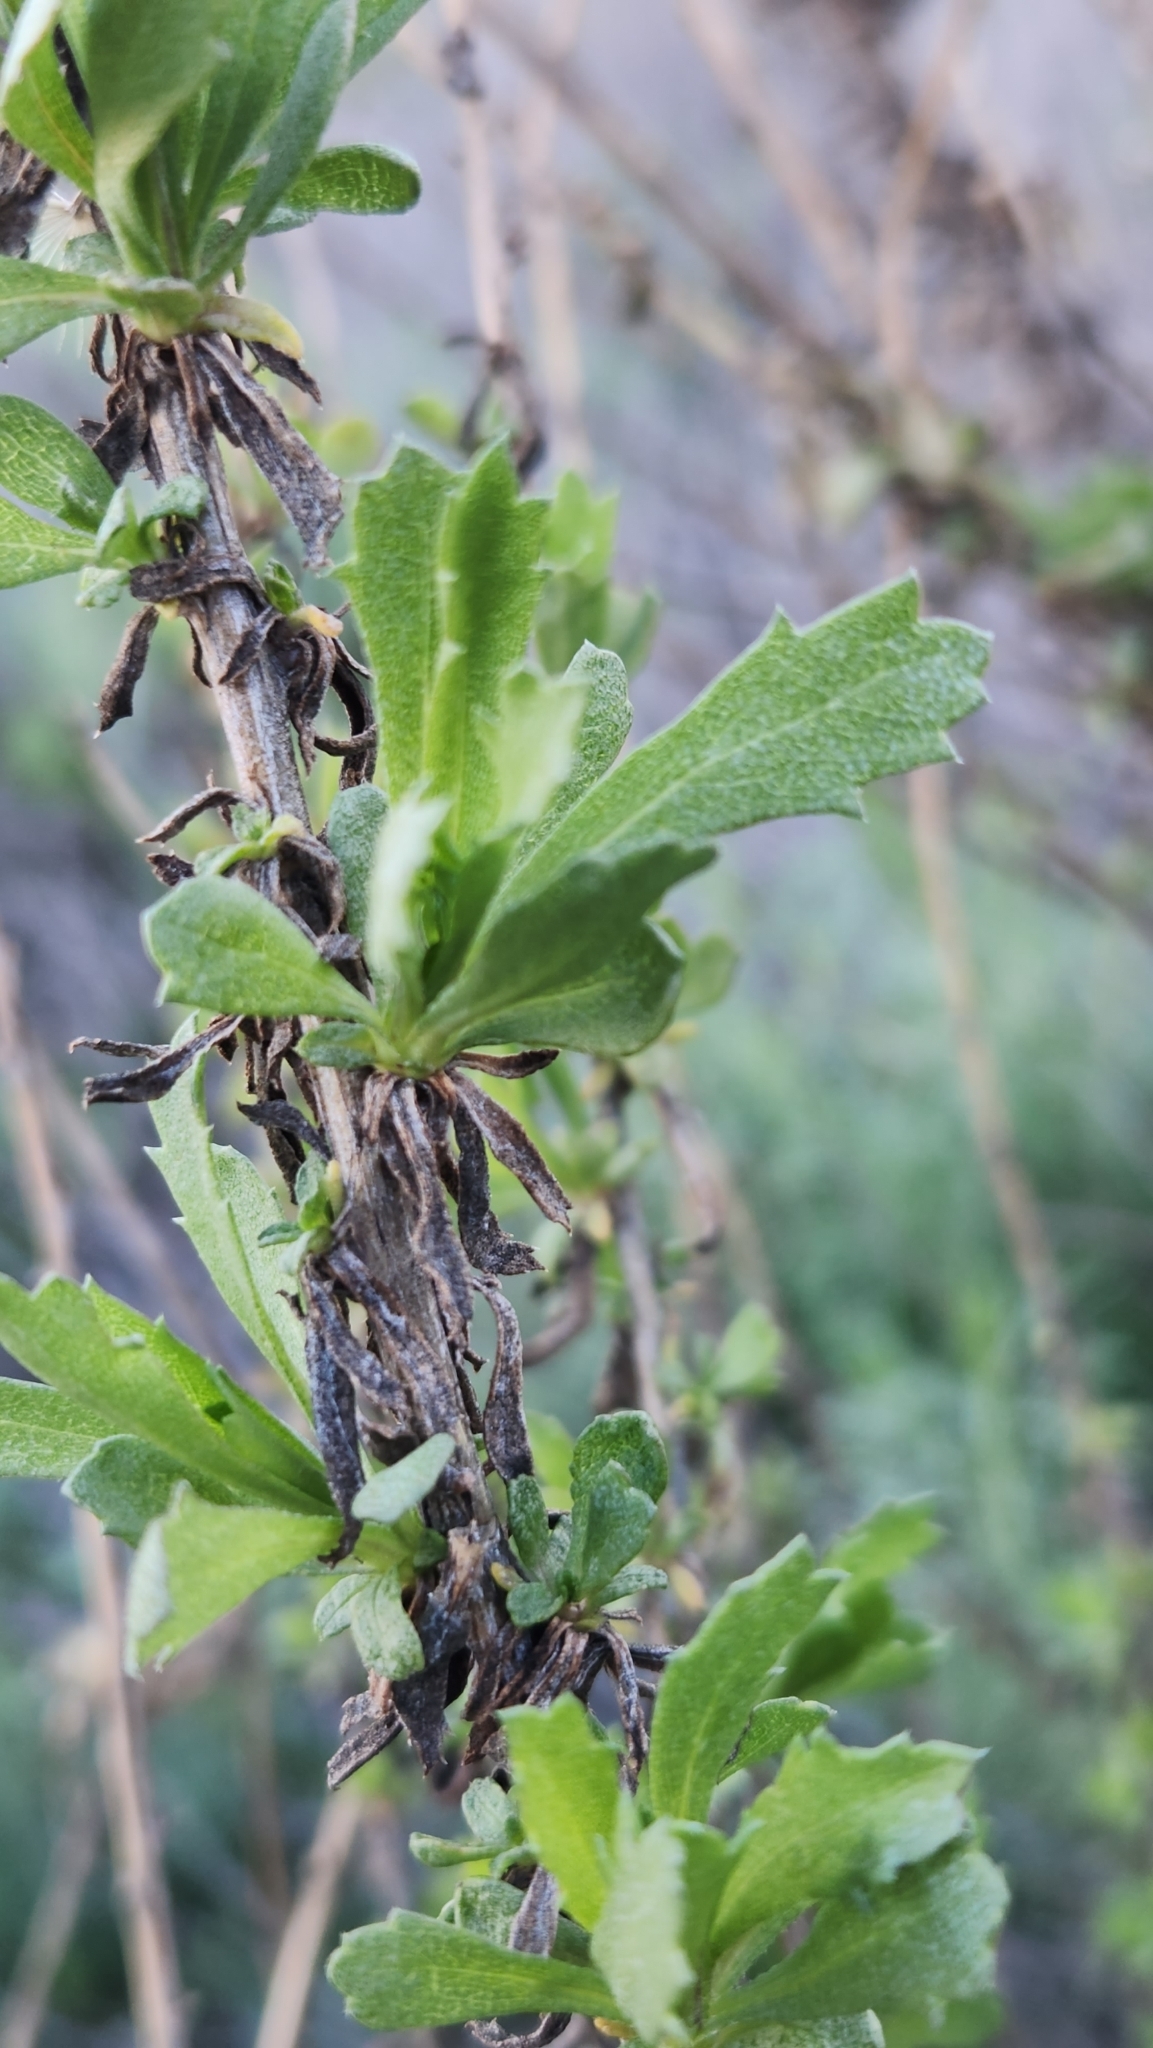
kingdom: Plantae
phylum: Tracheophyta
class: Magnoliopsida
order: Asterales
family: Asteraceae
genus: Isocoma
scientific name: Isocoma menziesii
